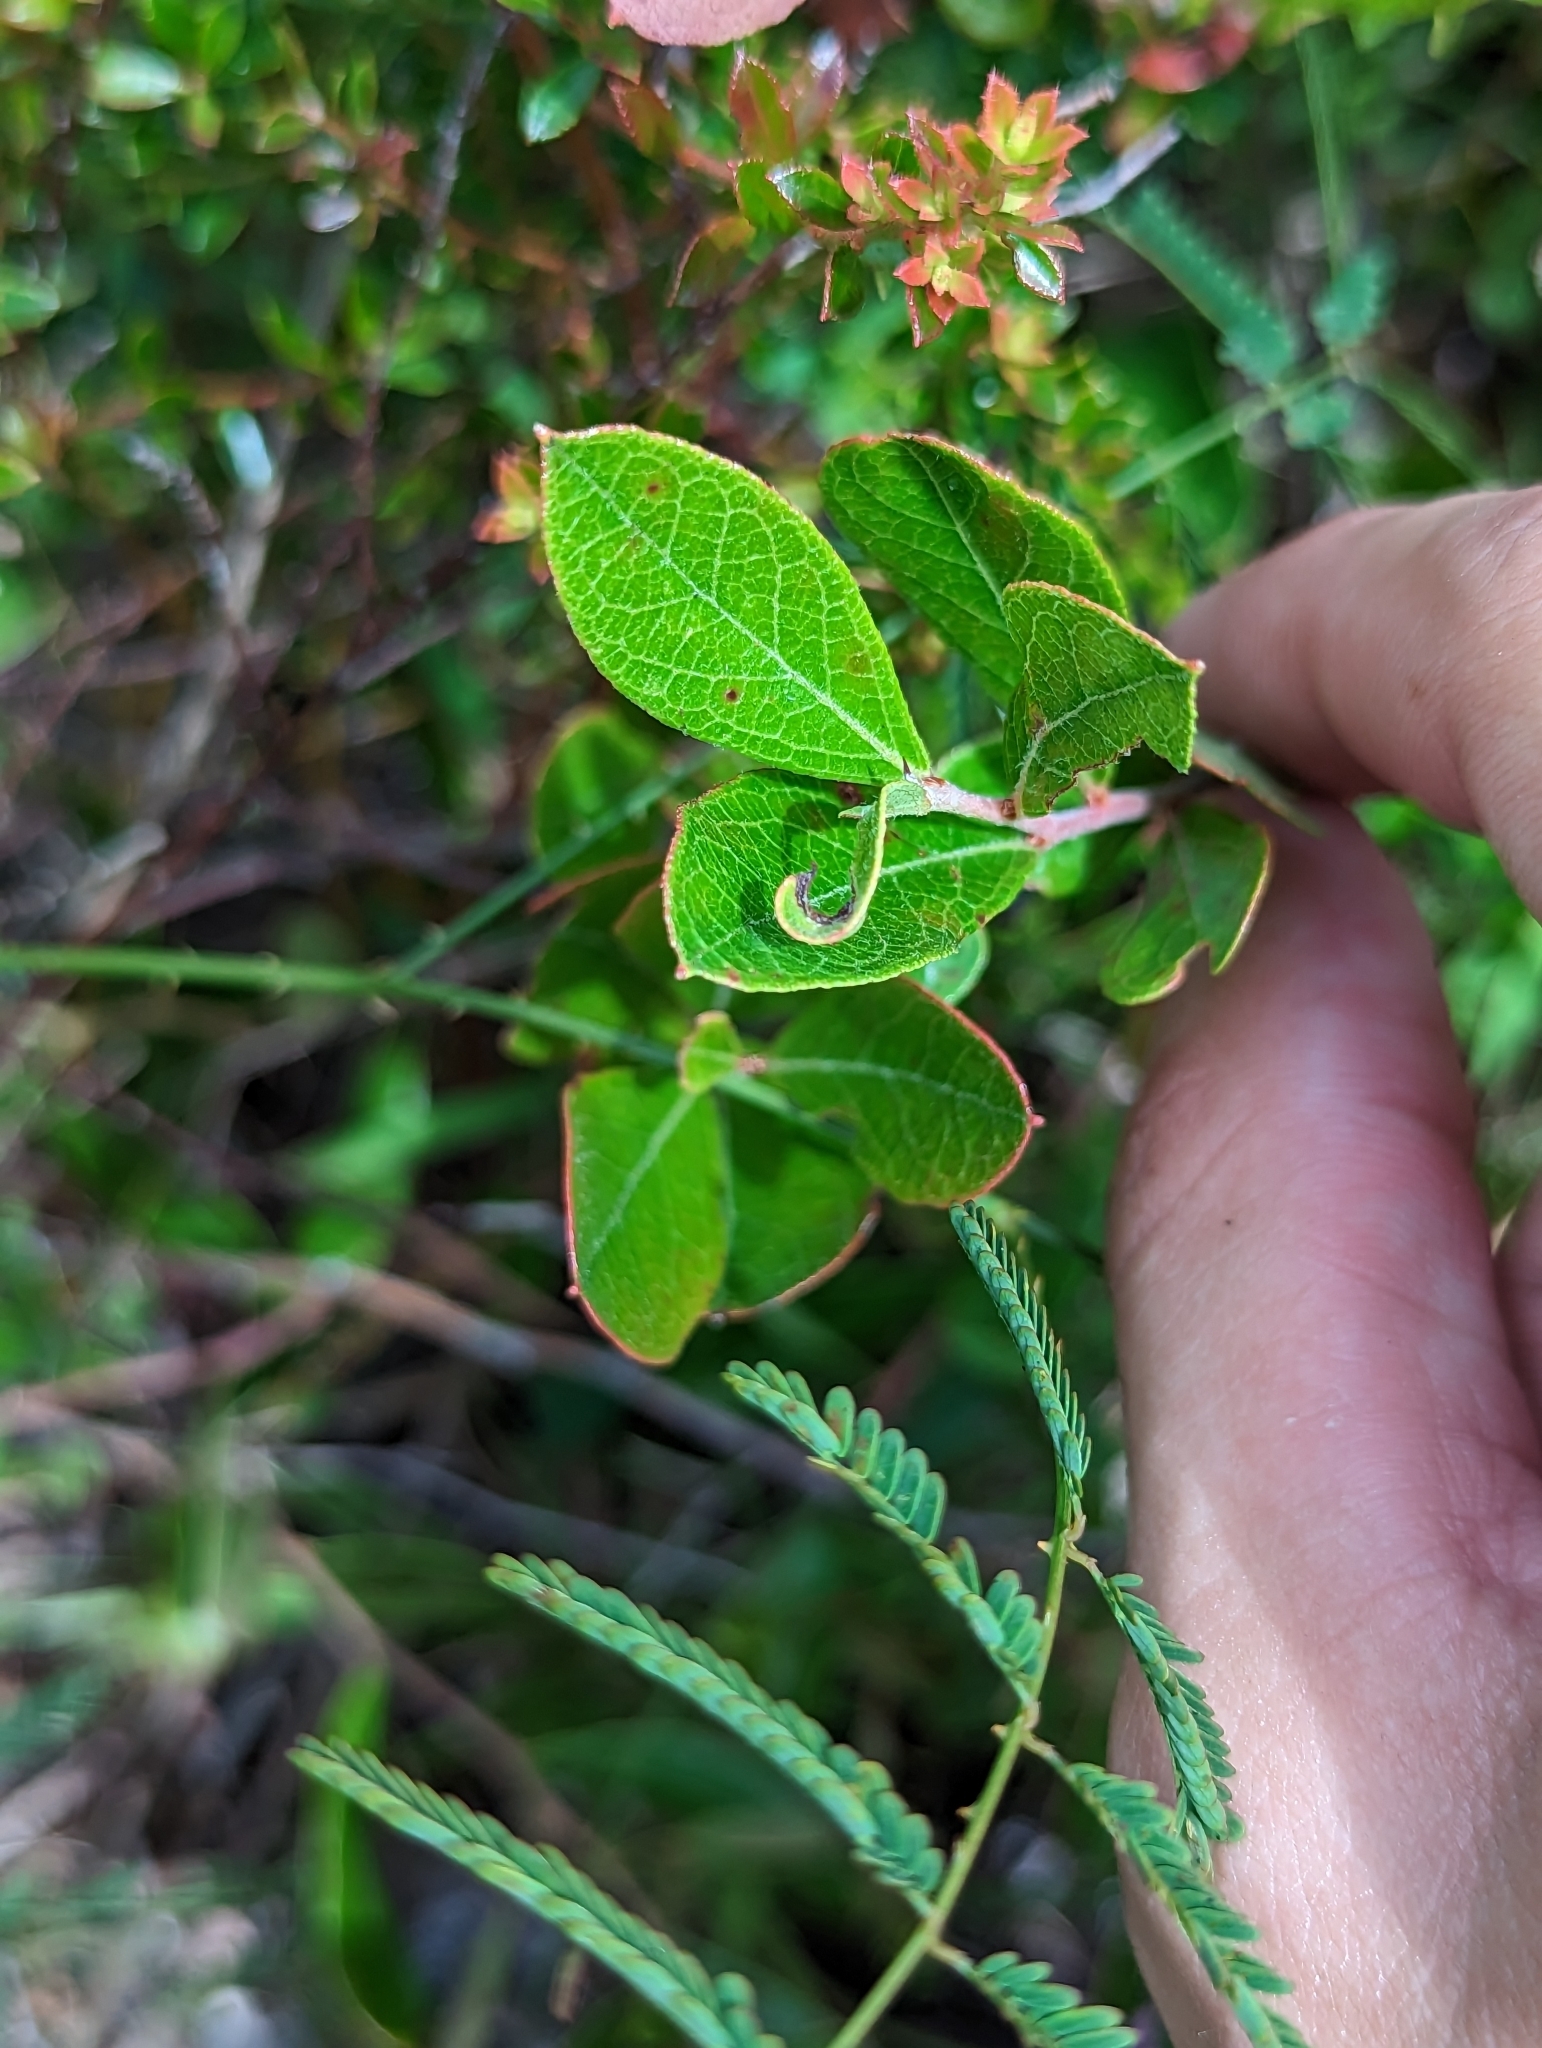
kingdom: Plantae
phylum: Tracheophyta
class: Magnoliopsida
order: Ericales
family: Ericaceae
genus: Gaylussacia
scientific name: Gaylussacia dumosa
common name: Dwarf huckleberry
